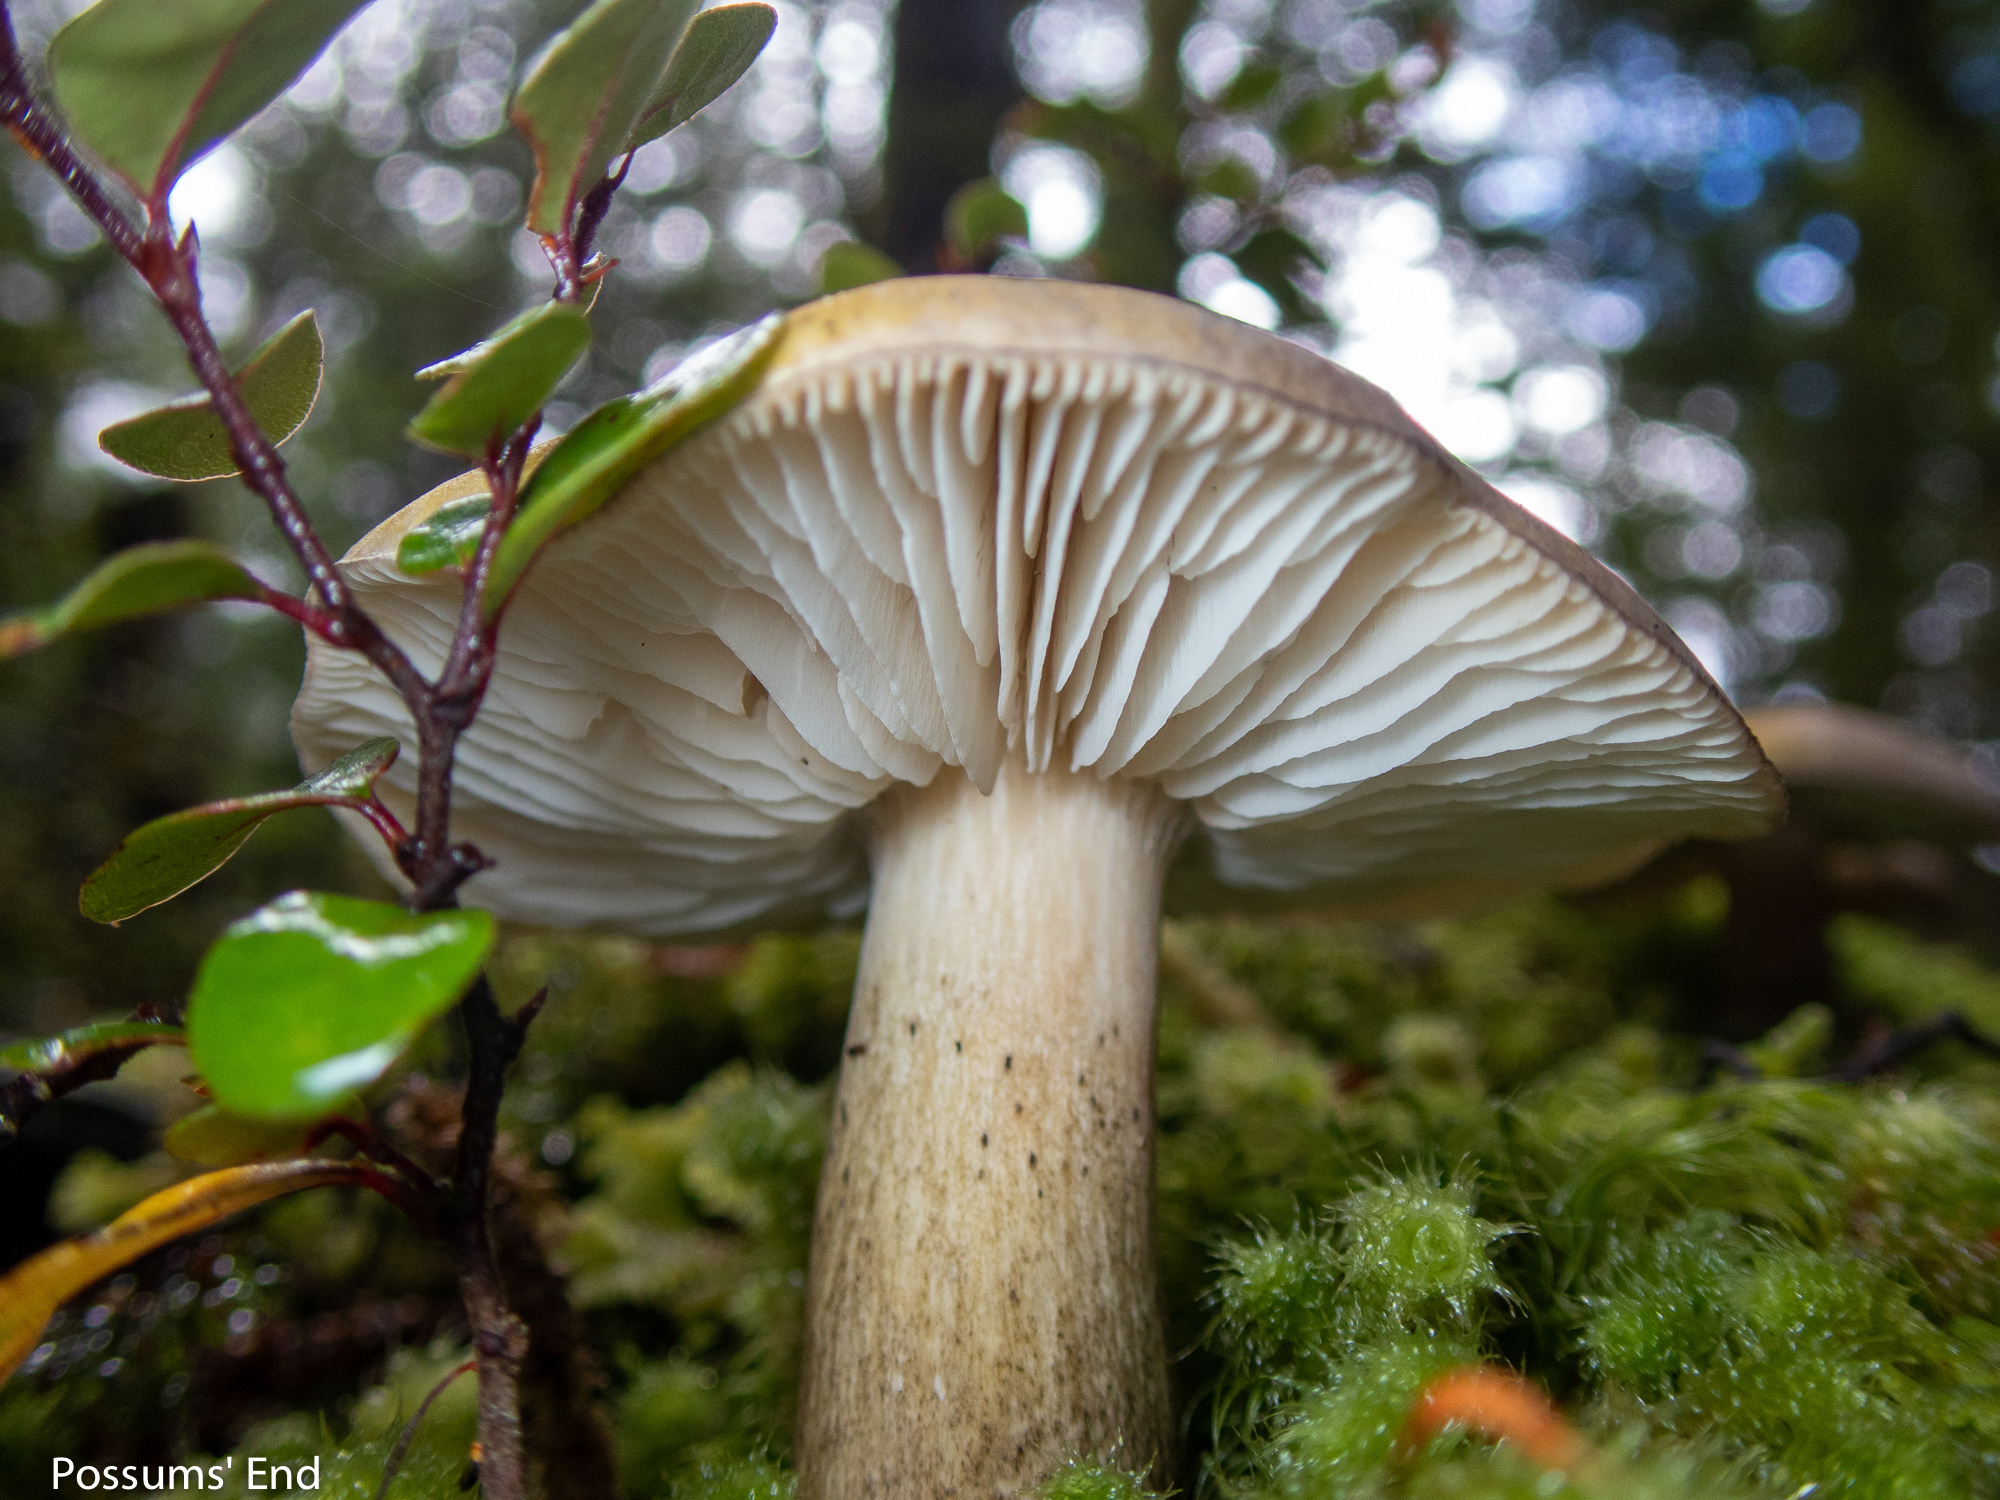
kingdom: Fungi
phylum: Basidiomycota
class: Agaricomycetes
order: Agaricales
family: Tricholomataceae
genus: Tricholoma
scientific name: Tricholoma viridiolivaceum
